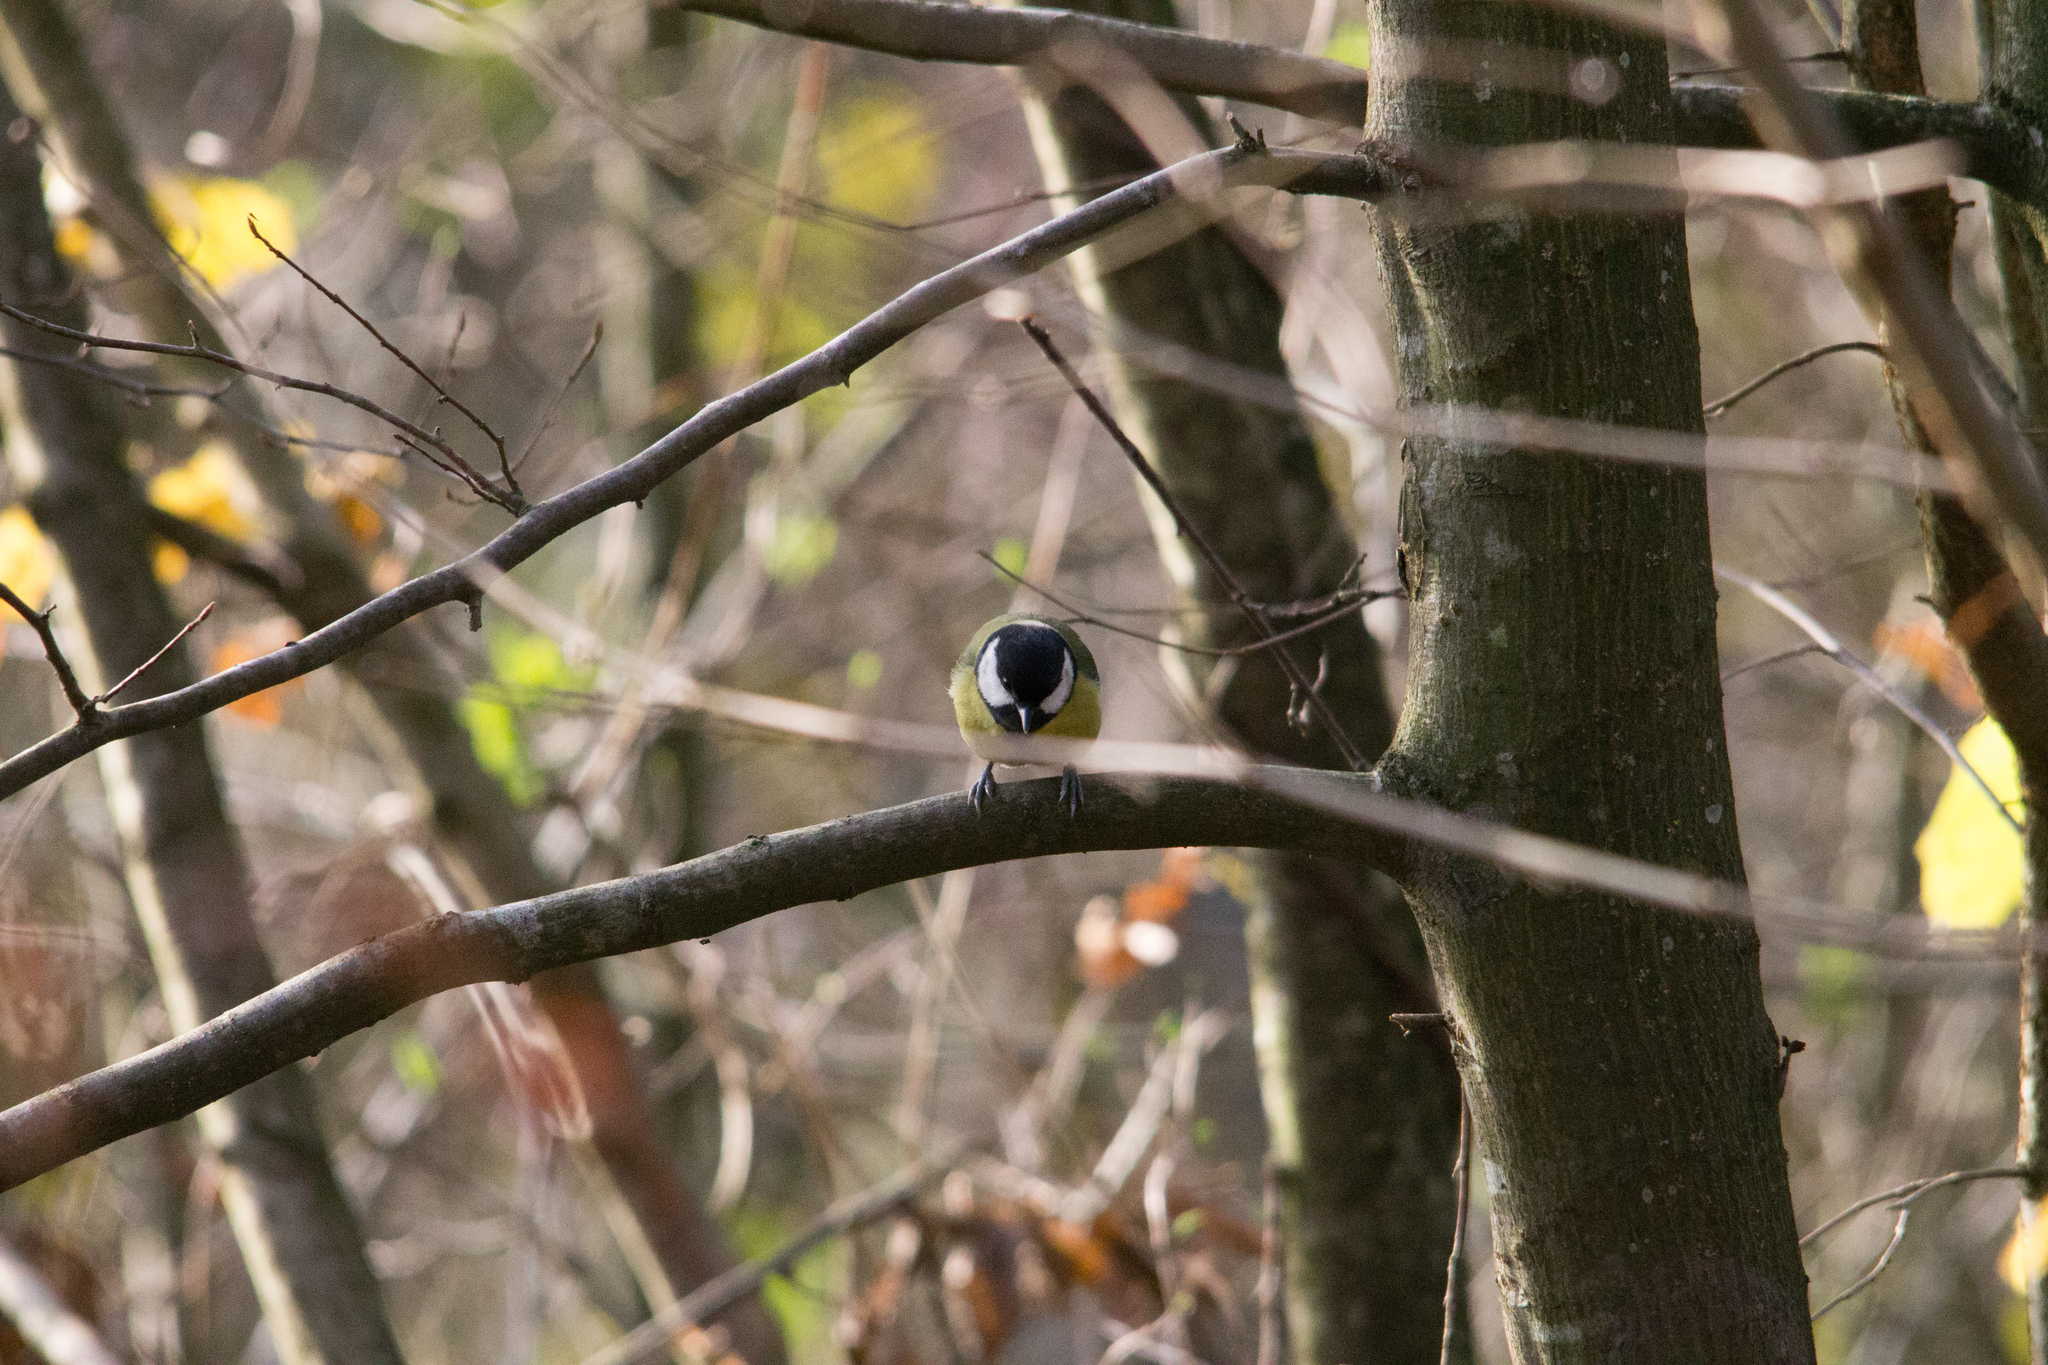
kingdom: Animalia
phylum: Chordata
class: Aves
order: Passeriformes
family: Paridae
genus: Parus
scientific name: Parus major
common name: Great tit
